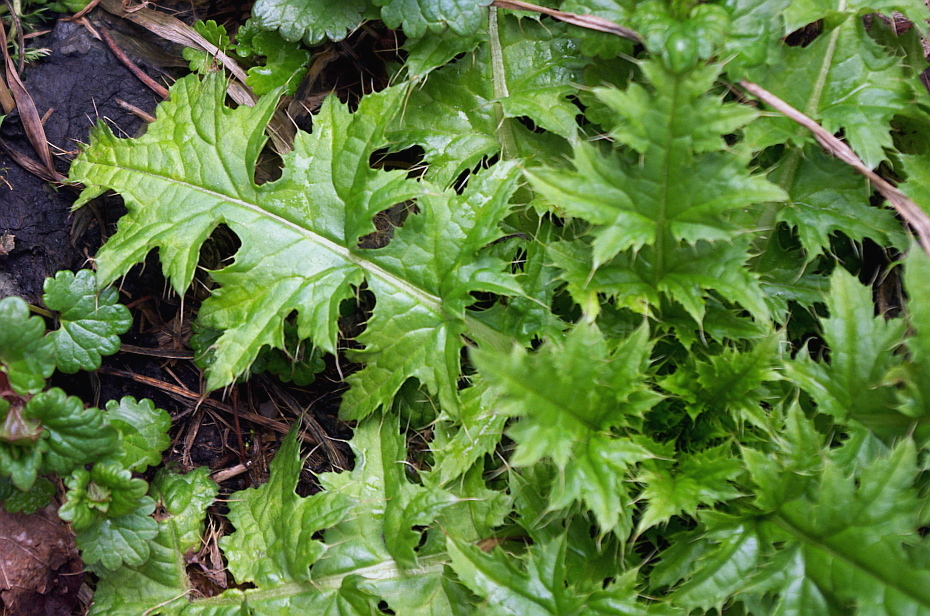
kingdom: Plantae
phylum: Tracheophyta
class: Magnoliopsida
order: Asterales
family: Asteraceae
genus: Carduus
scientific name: Carduus crispus
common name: Welted thistle
